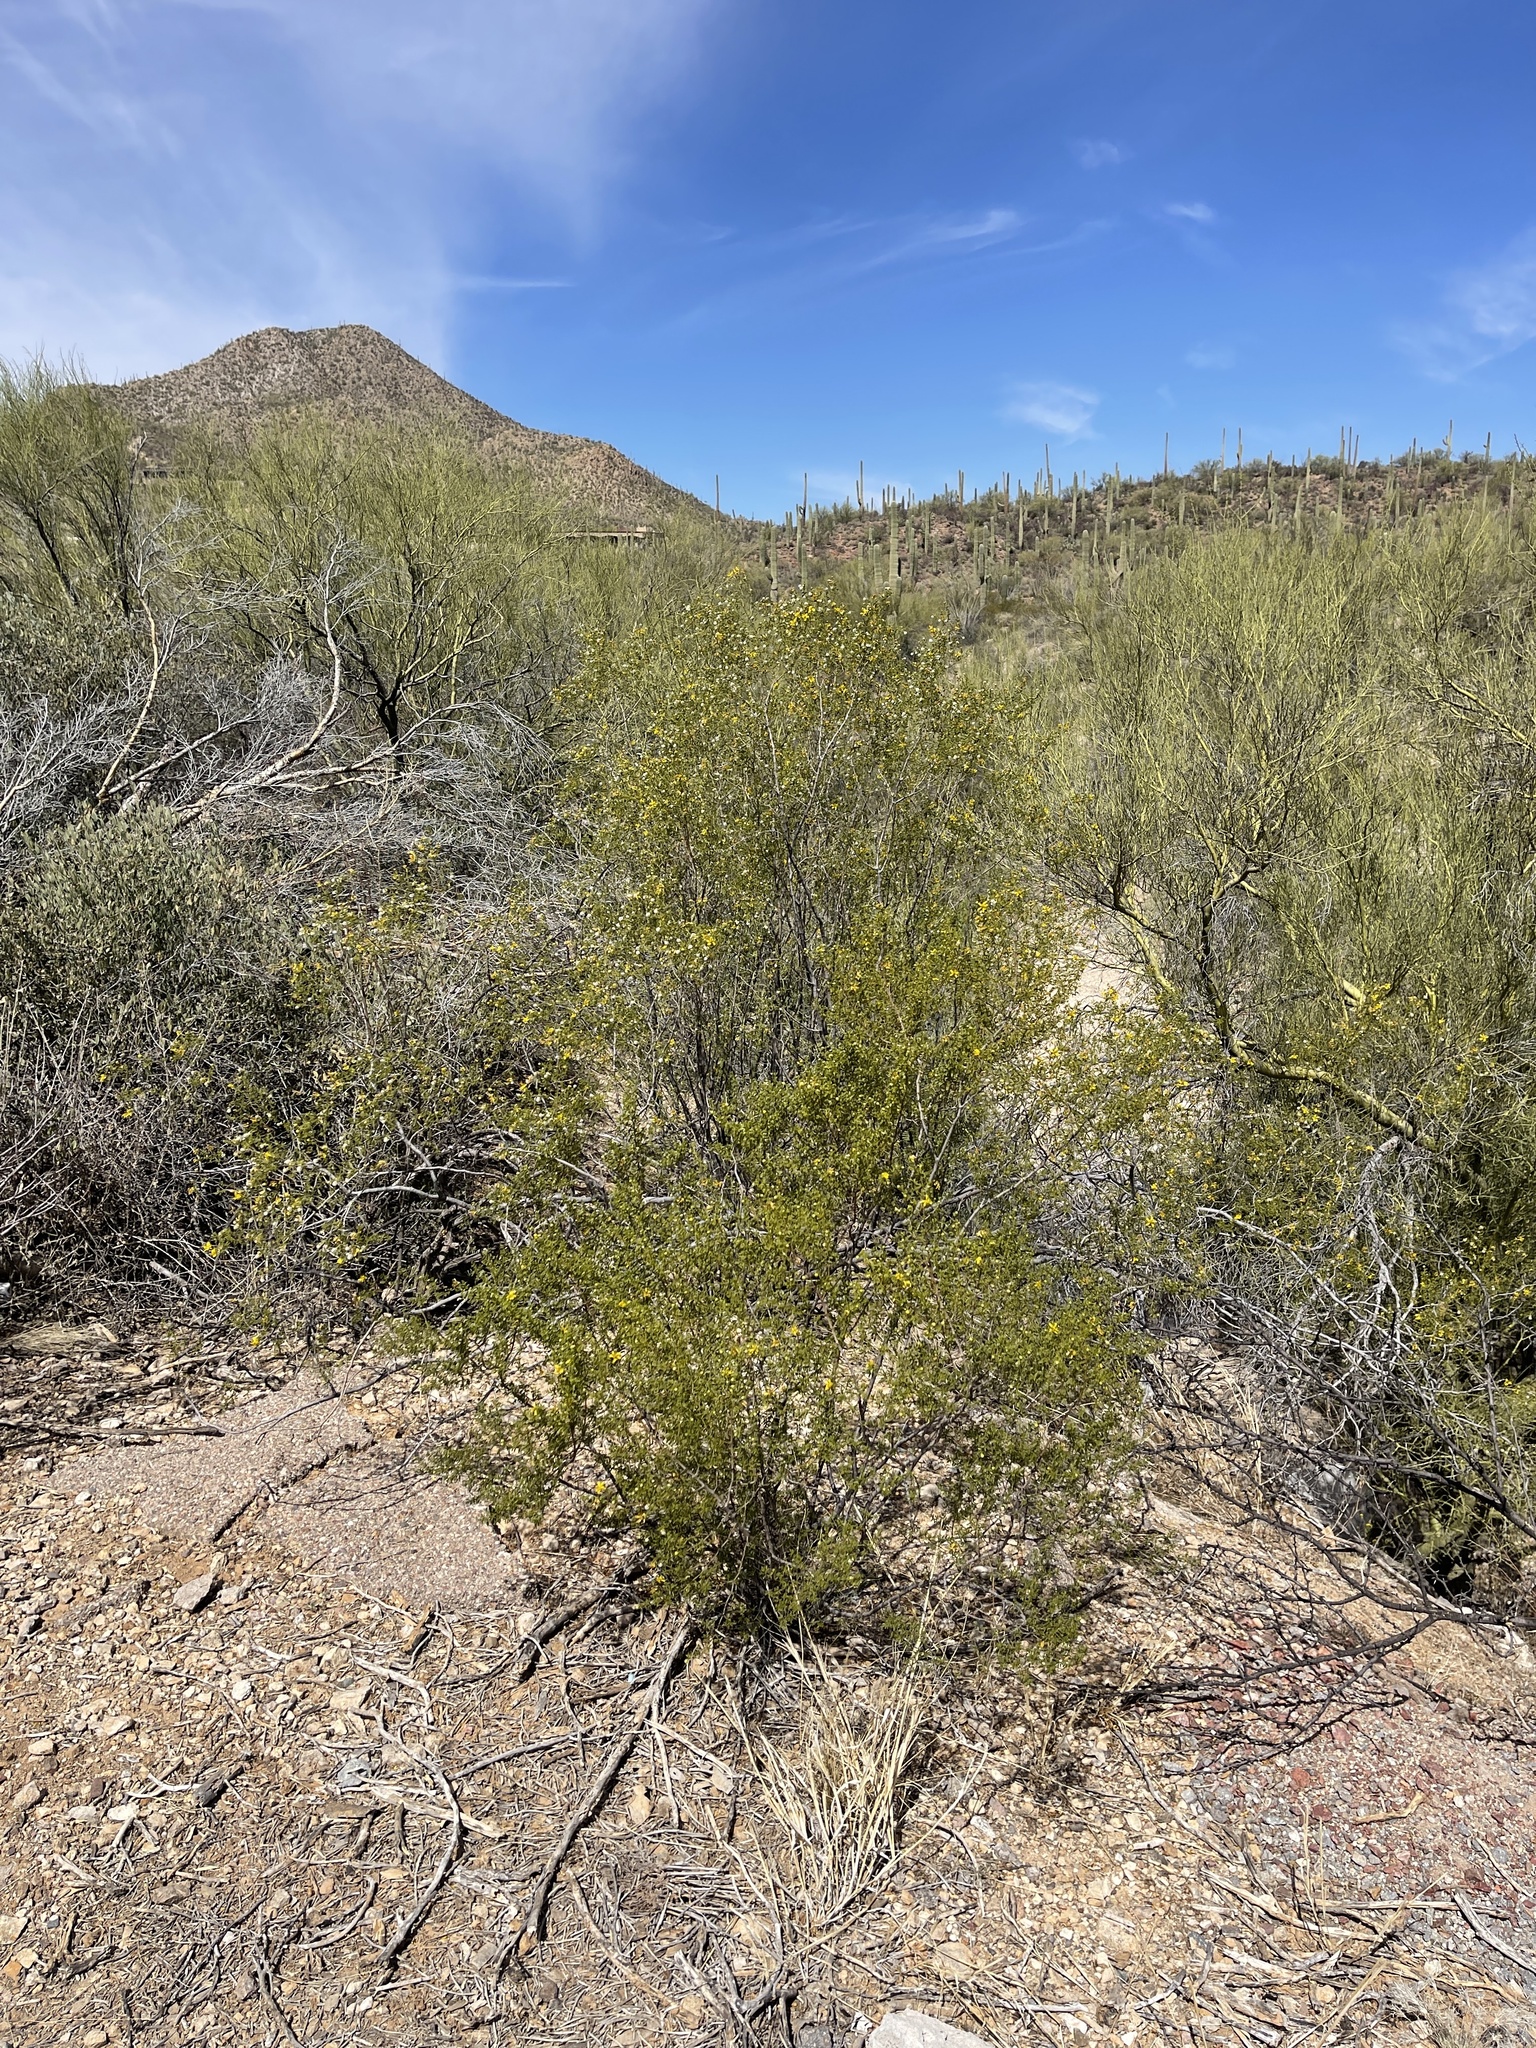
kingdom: Plantae
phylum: Tracheophyta
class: Magnoliopsida
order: Zygophyllales
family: Zygophyllaceae
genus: Larrea
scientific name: Larrea tridentata
